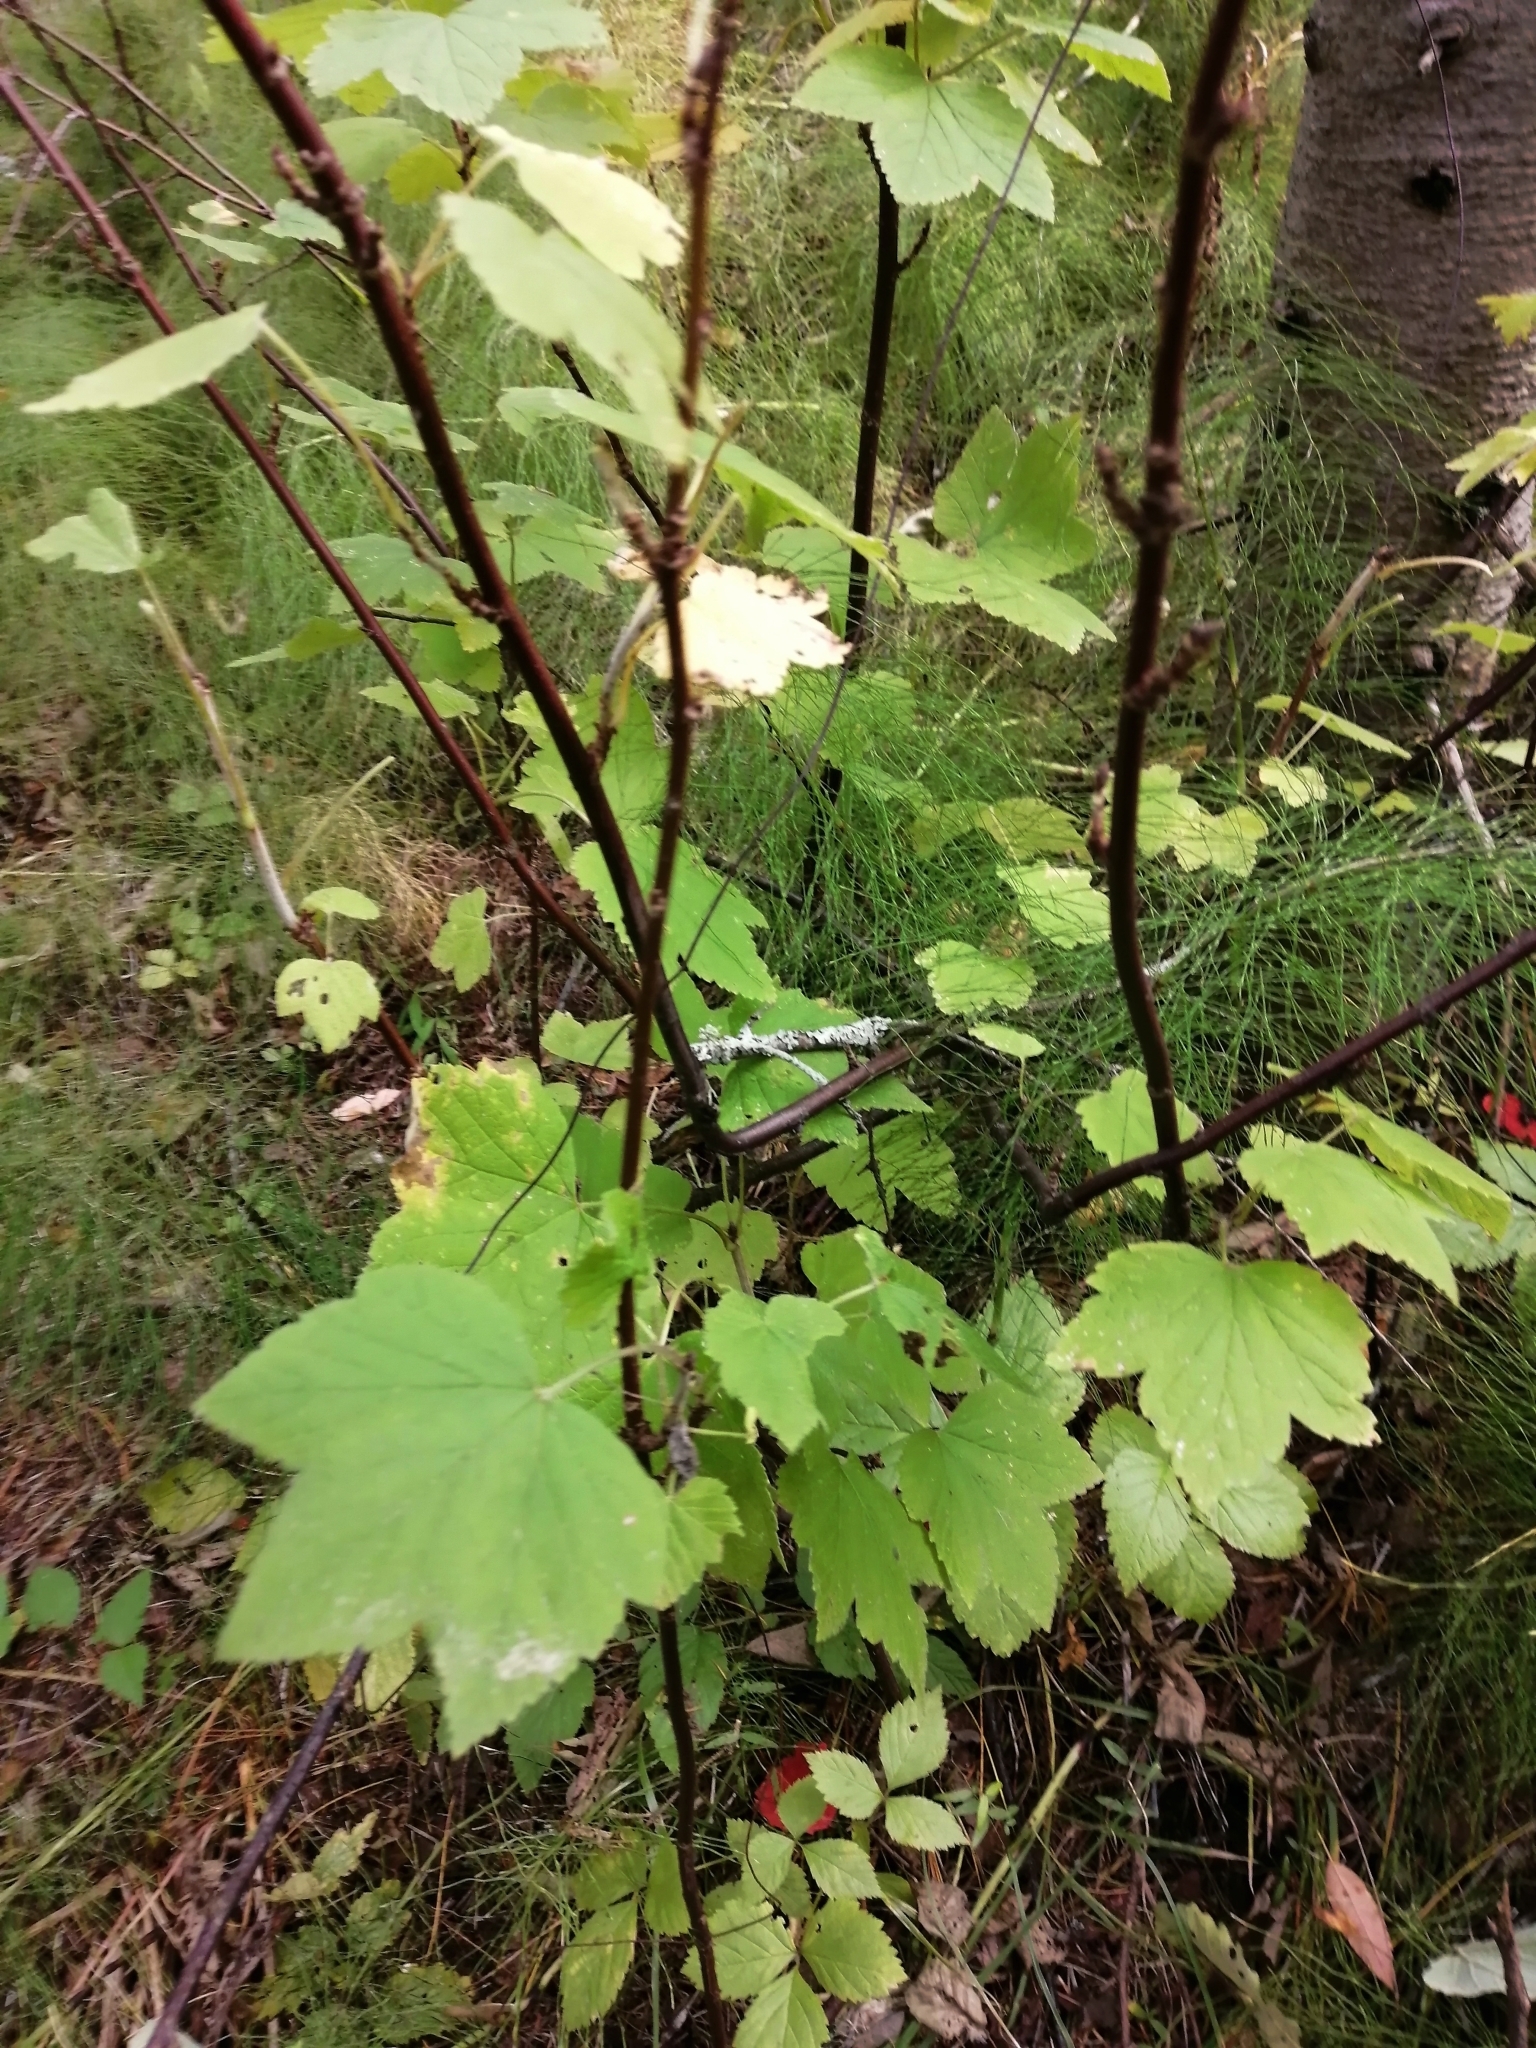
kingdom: Plantae
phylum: Tracheophyta
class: Magnoliopsida
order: Saxifragales
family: Grossulariaceae
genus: Ribes
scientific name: Ribes spicatum
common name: Downy currant
